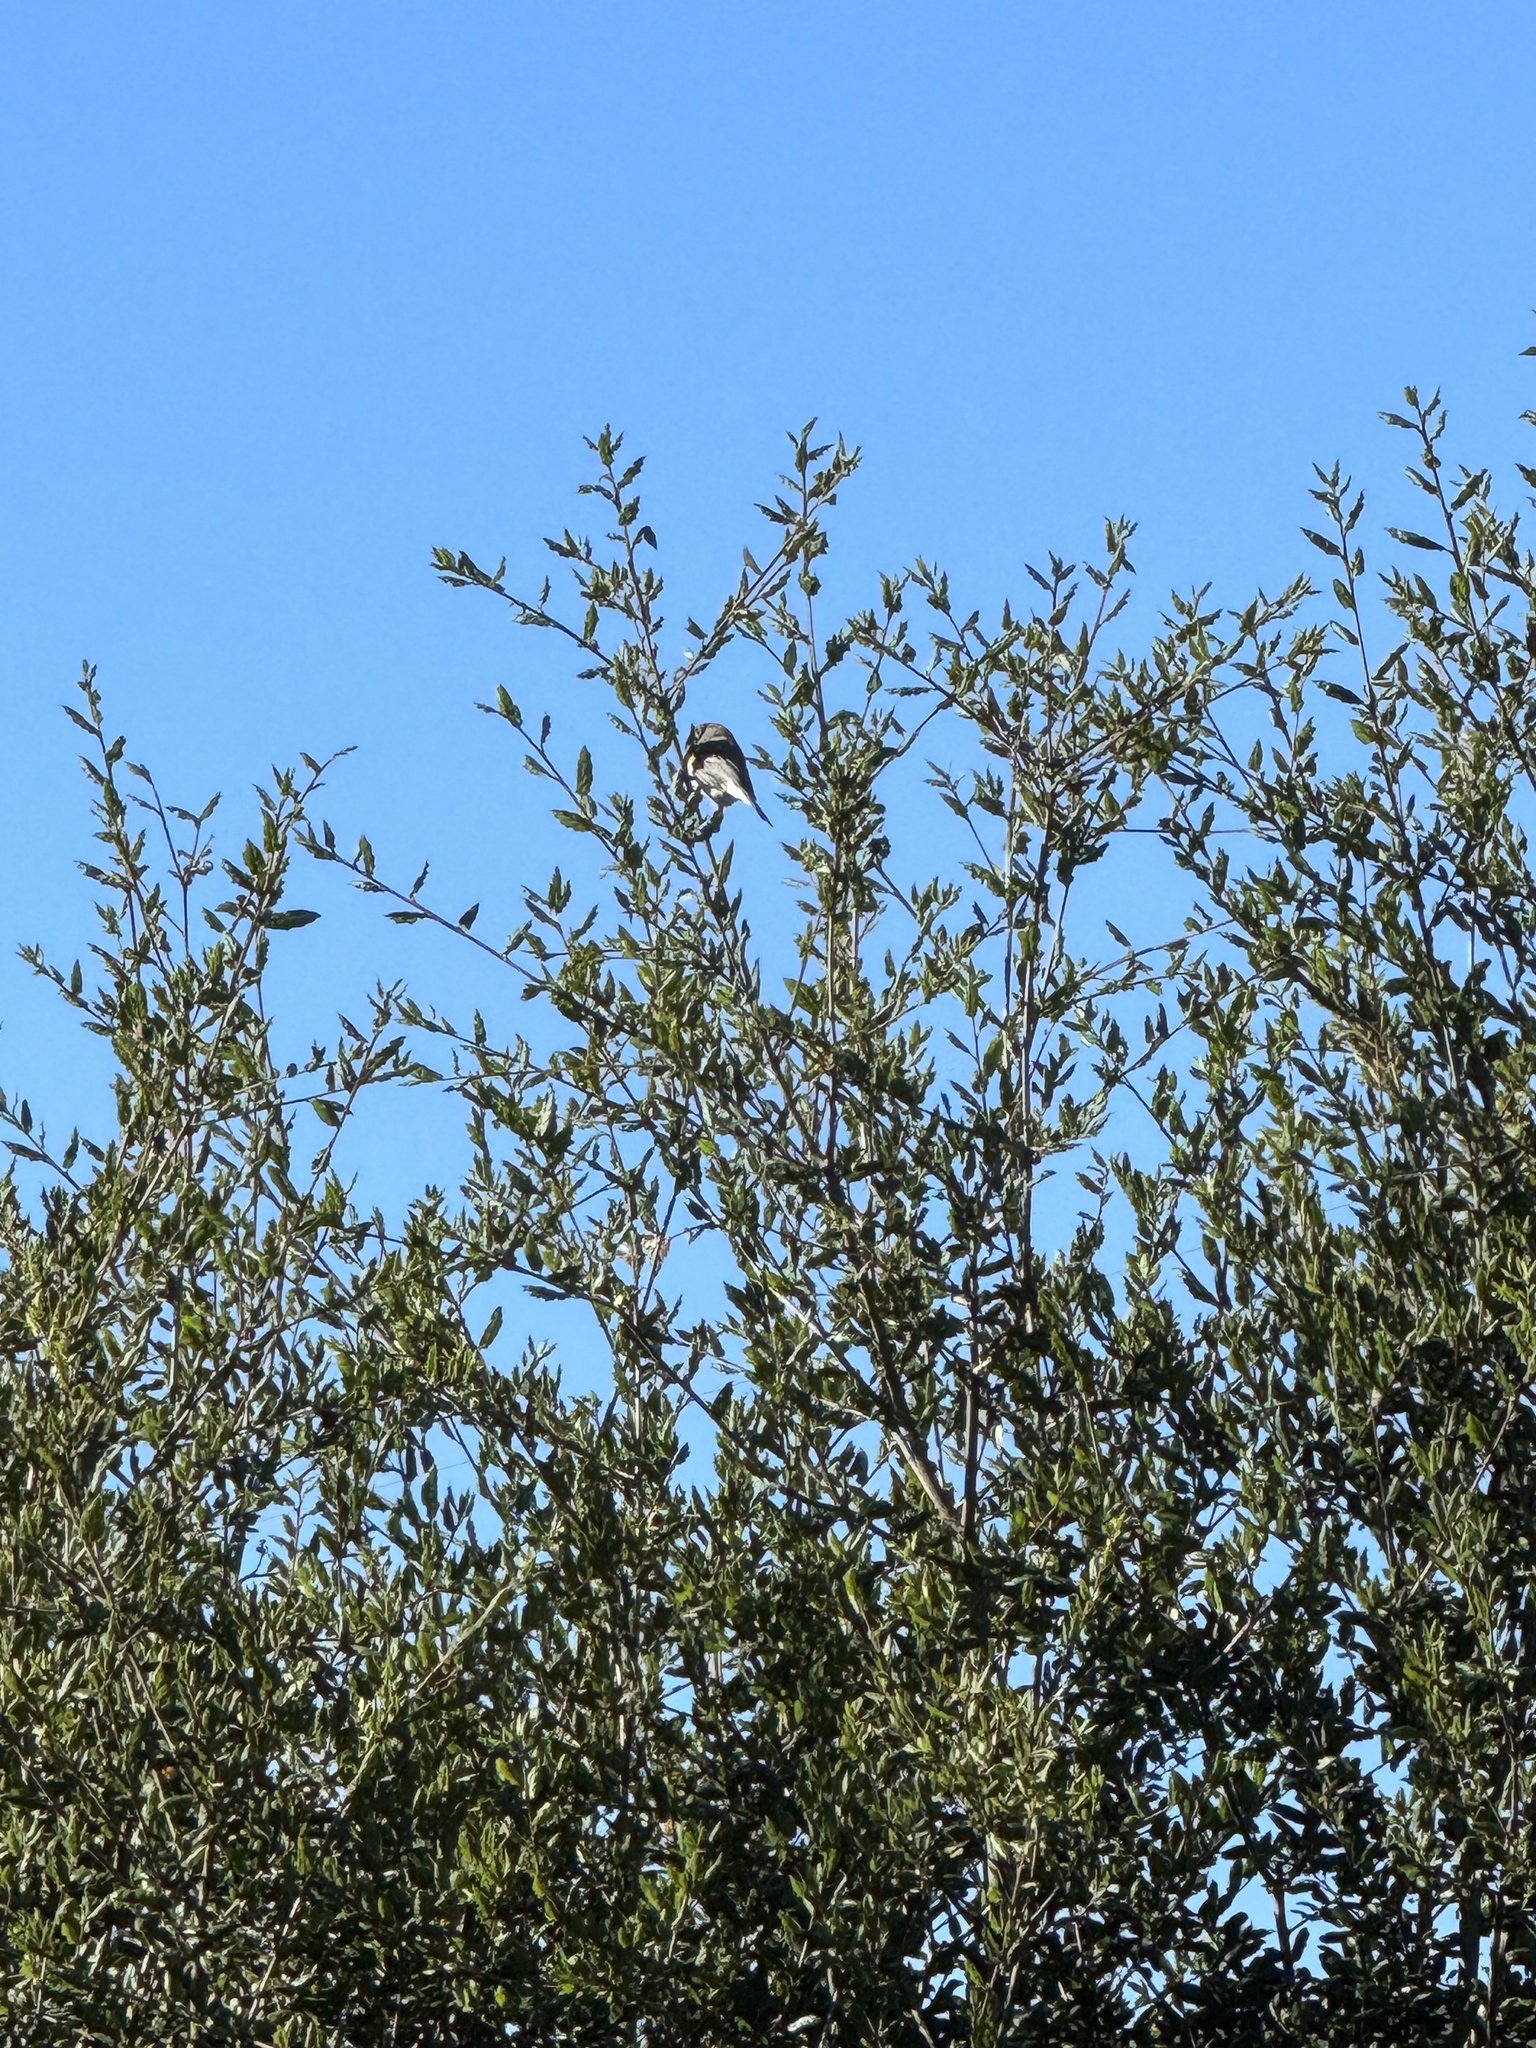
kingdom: Animalia
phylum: Chordata
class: Aves
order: Passeriformes
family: Parulidae
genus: Setophaga
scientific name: Setophaga coronata
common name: Myrtle warbler
